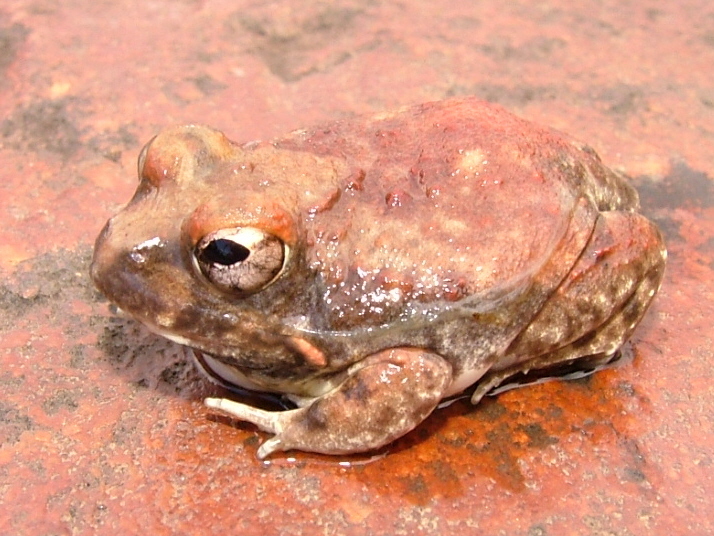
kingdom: Animalia
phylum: Chordata
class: Amphibia
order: Anura
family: Pyxicephalidae
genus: Tomopterna
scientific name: Tomopterna marmorata
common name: Russet-backed sand frog
